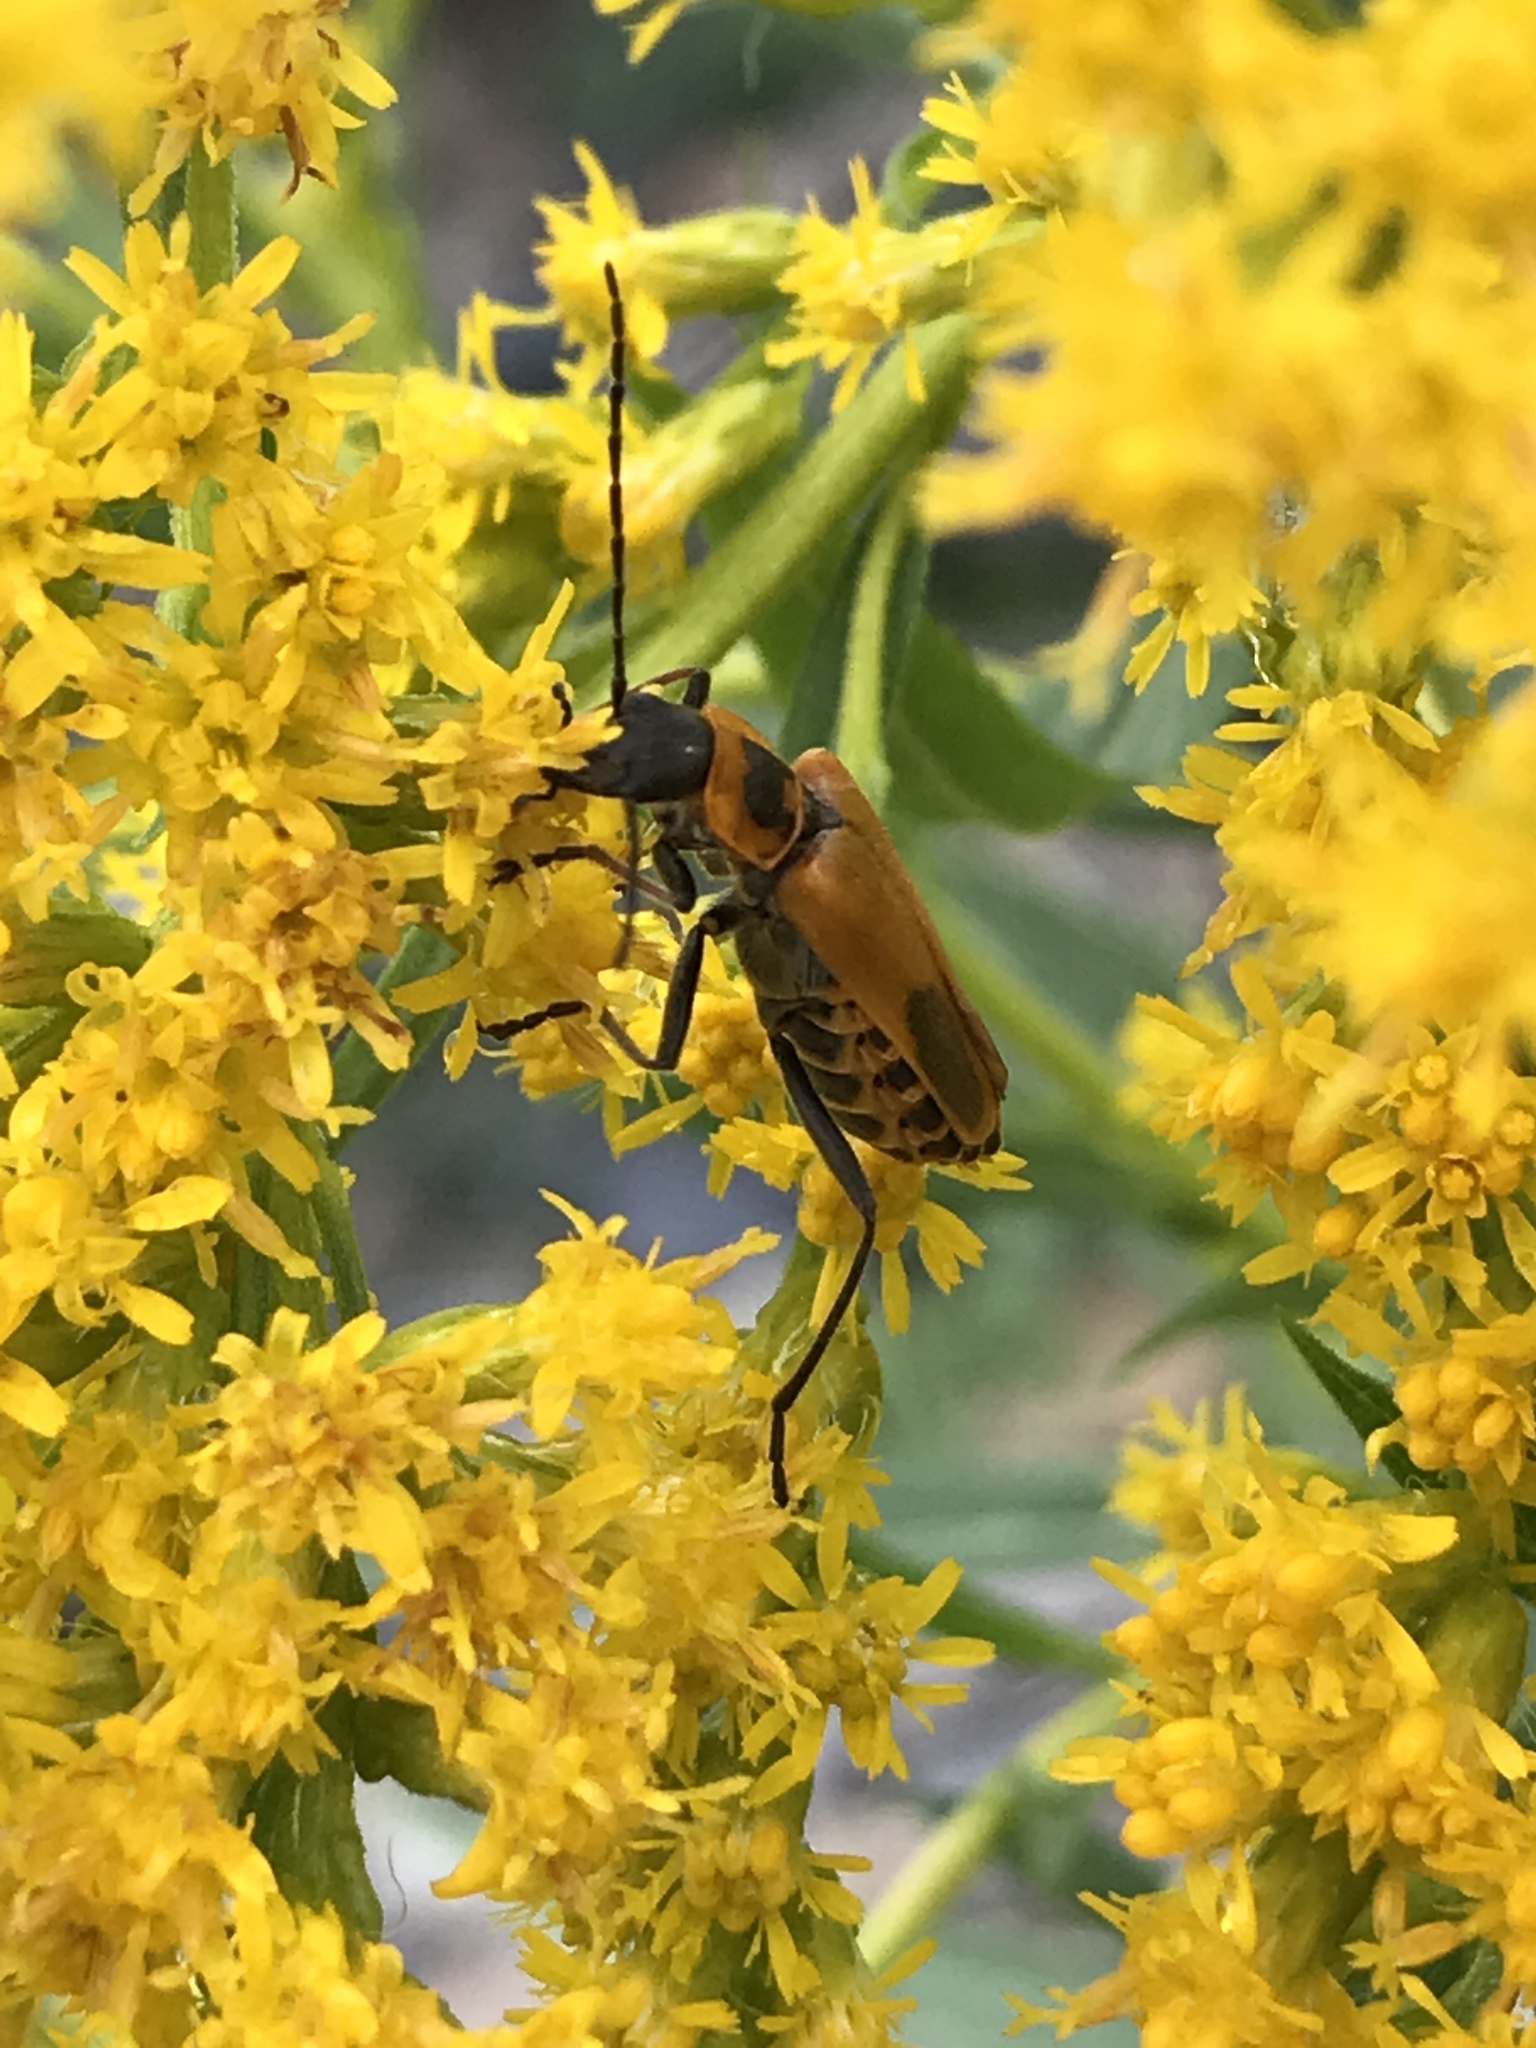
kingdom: Animalia
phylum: Arthropoda
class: Insecta
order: Coleoptera
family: Cantharidae
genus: Chauliognathus
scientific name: Chauliognathus pensylvanicus
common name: Goldenrod soldier beetle
